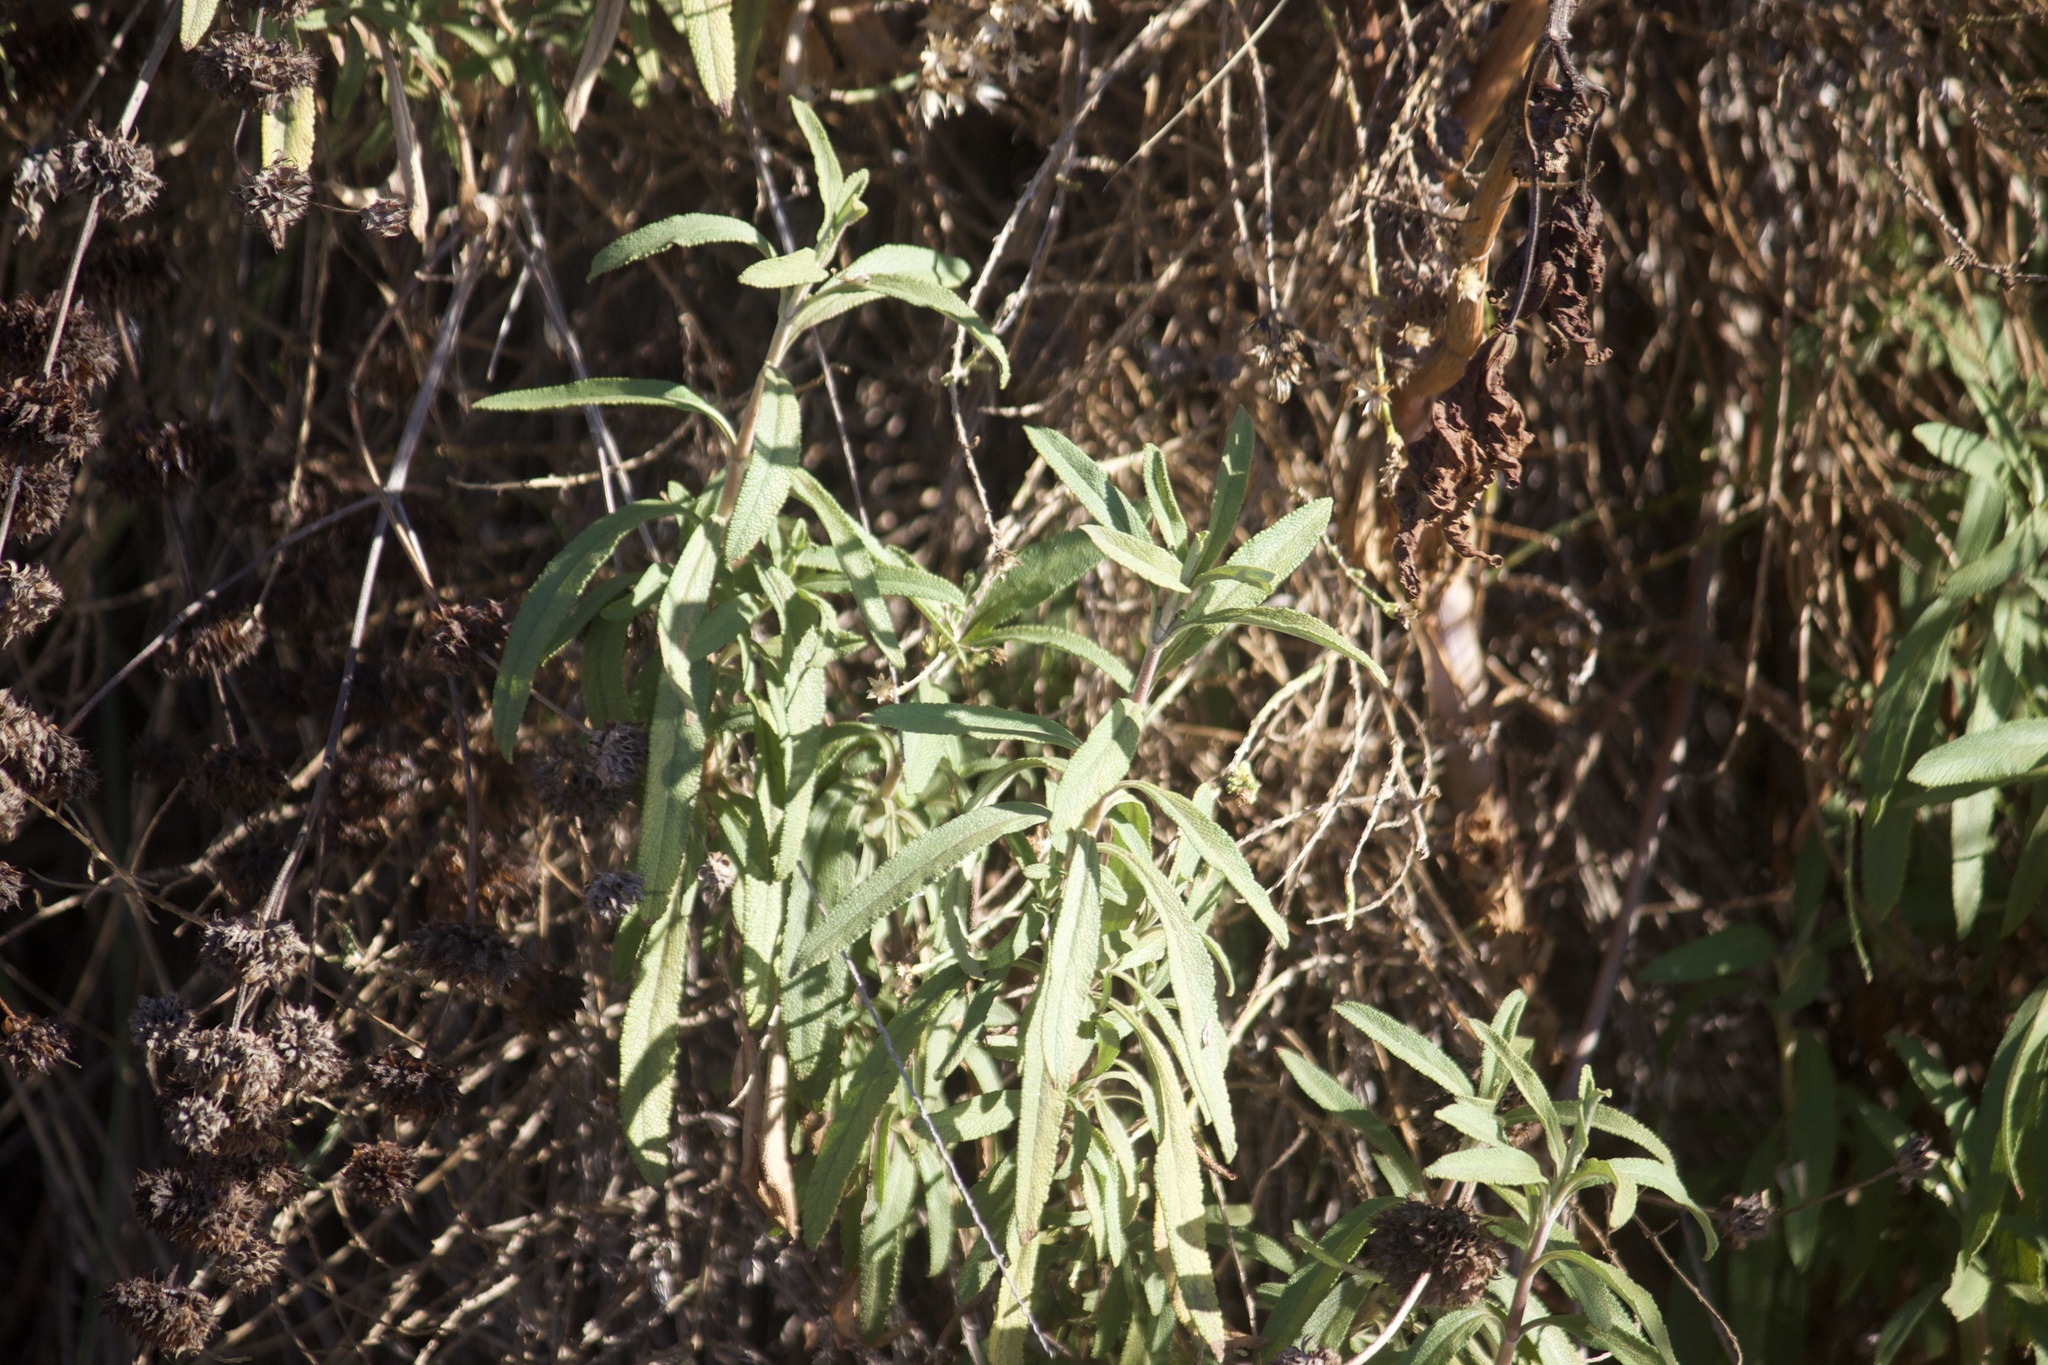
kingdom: Plantae
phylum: Tracheophyta
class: Magnoliopsida
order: Lamiales
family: Lamiaceae
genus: Salvia
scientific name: Salvia mellifera
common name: Black sage
